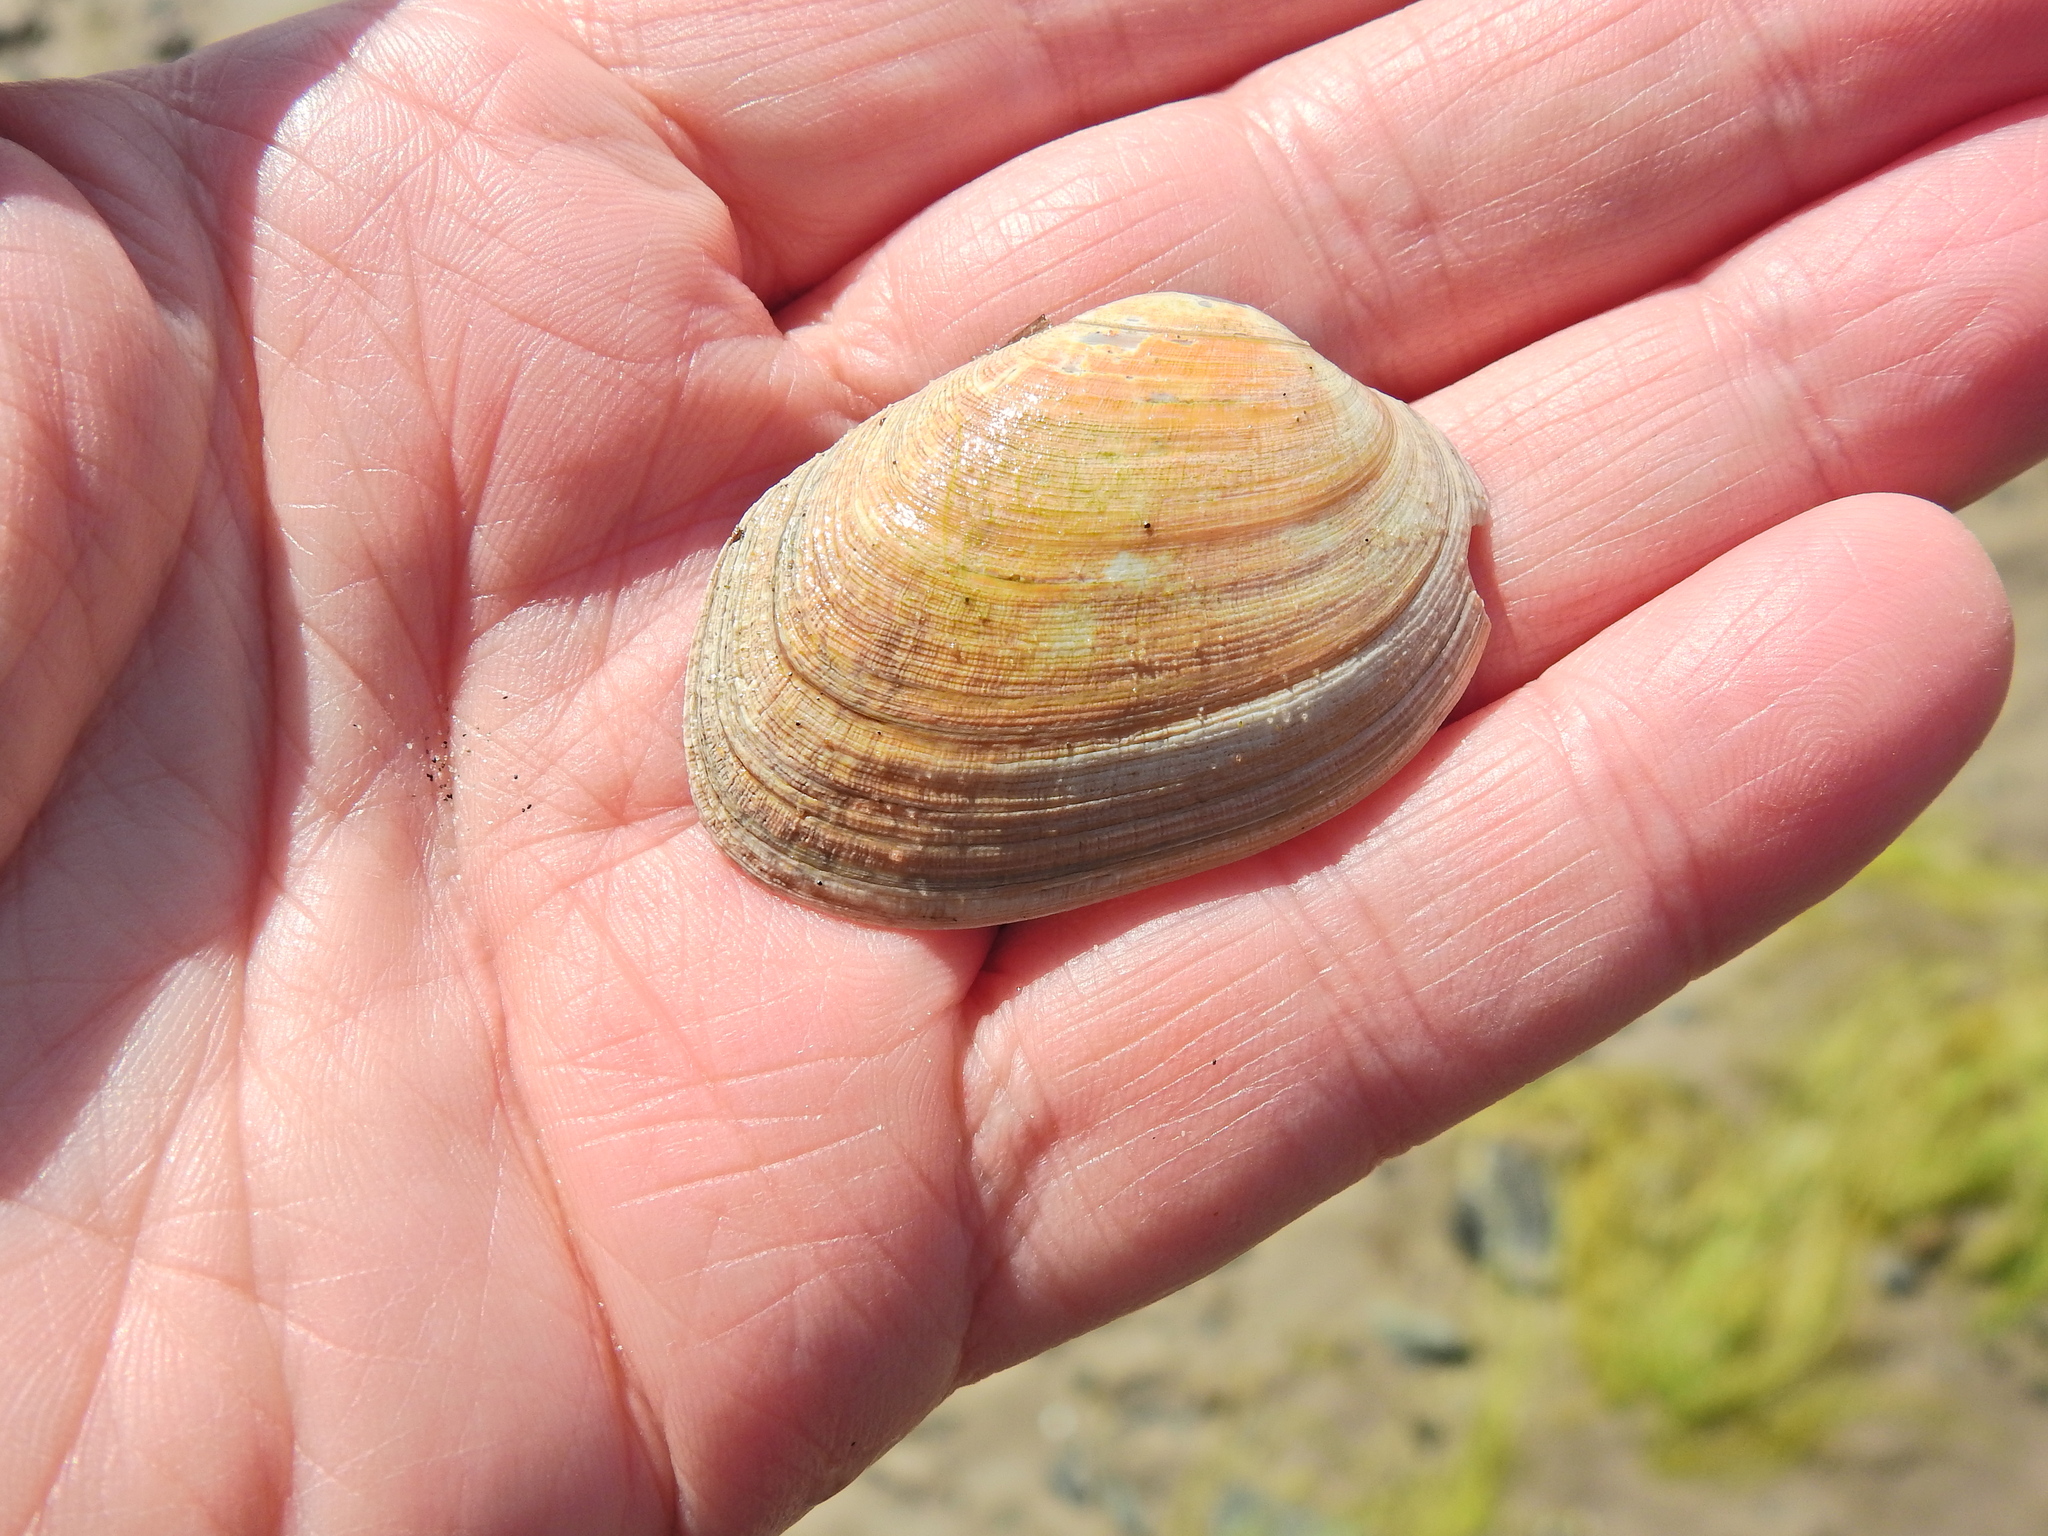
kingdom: Animalia
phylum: Mollusca
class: Bivalvia
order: Venerida
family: Veneridae
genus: Venerupis
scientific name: Venerupis corrugata
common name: Pullet carpet shell
